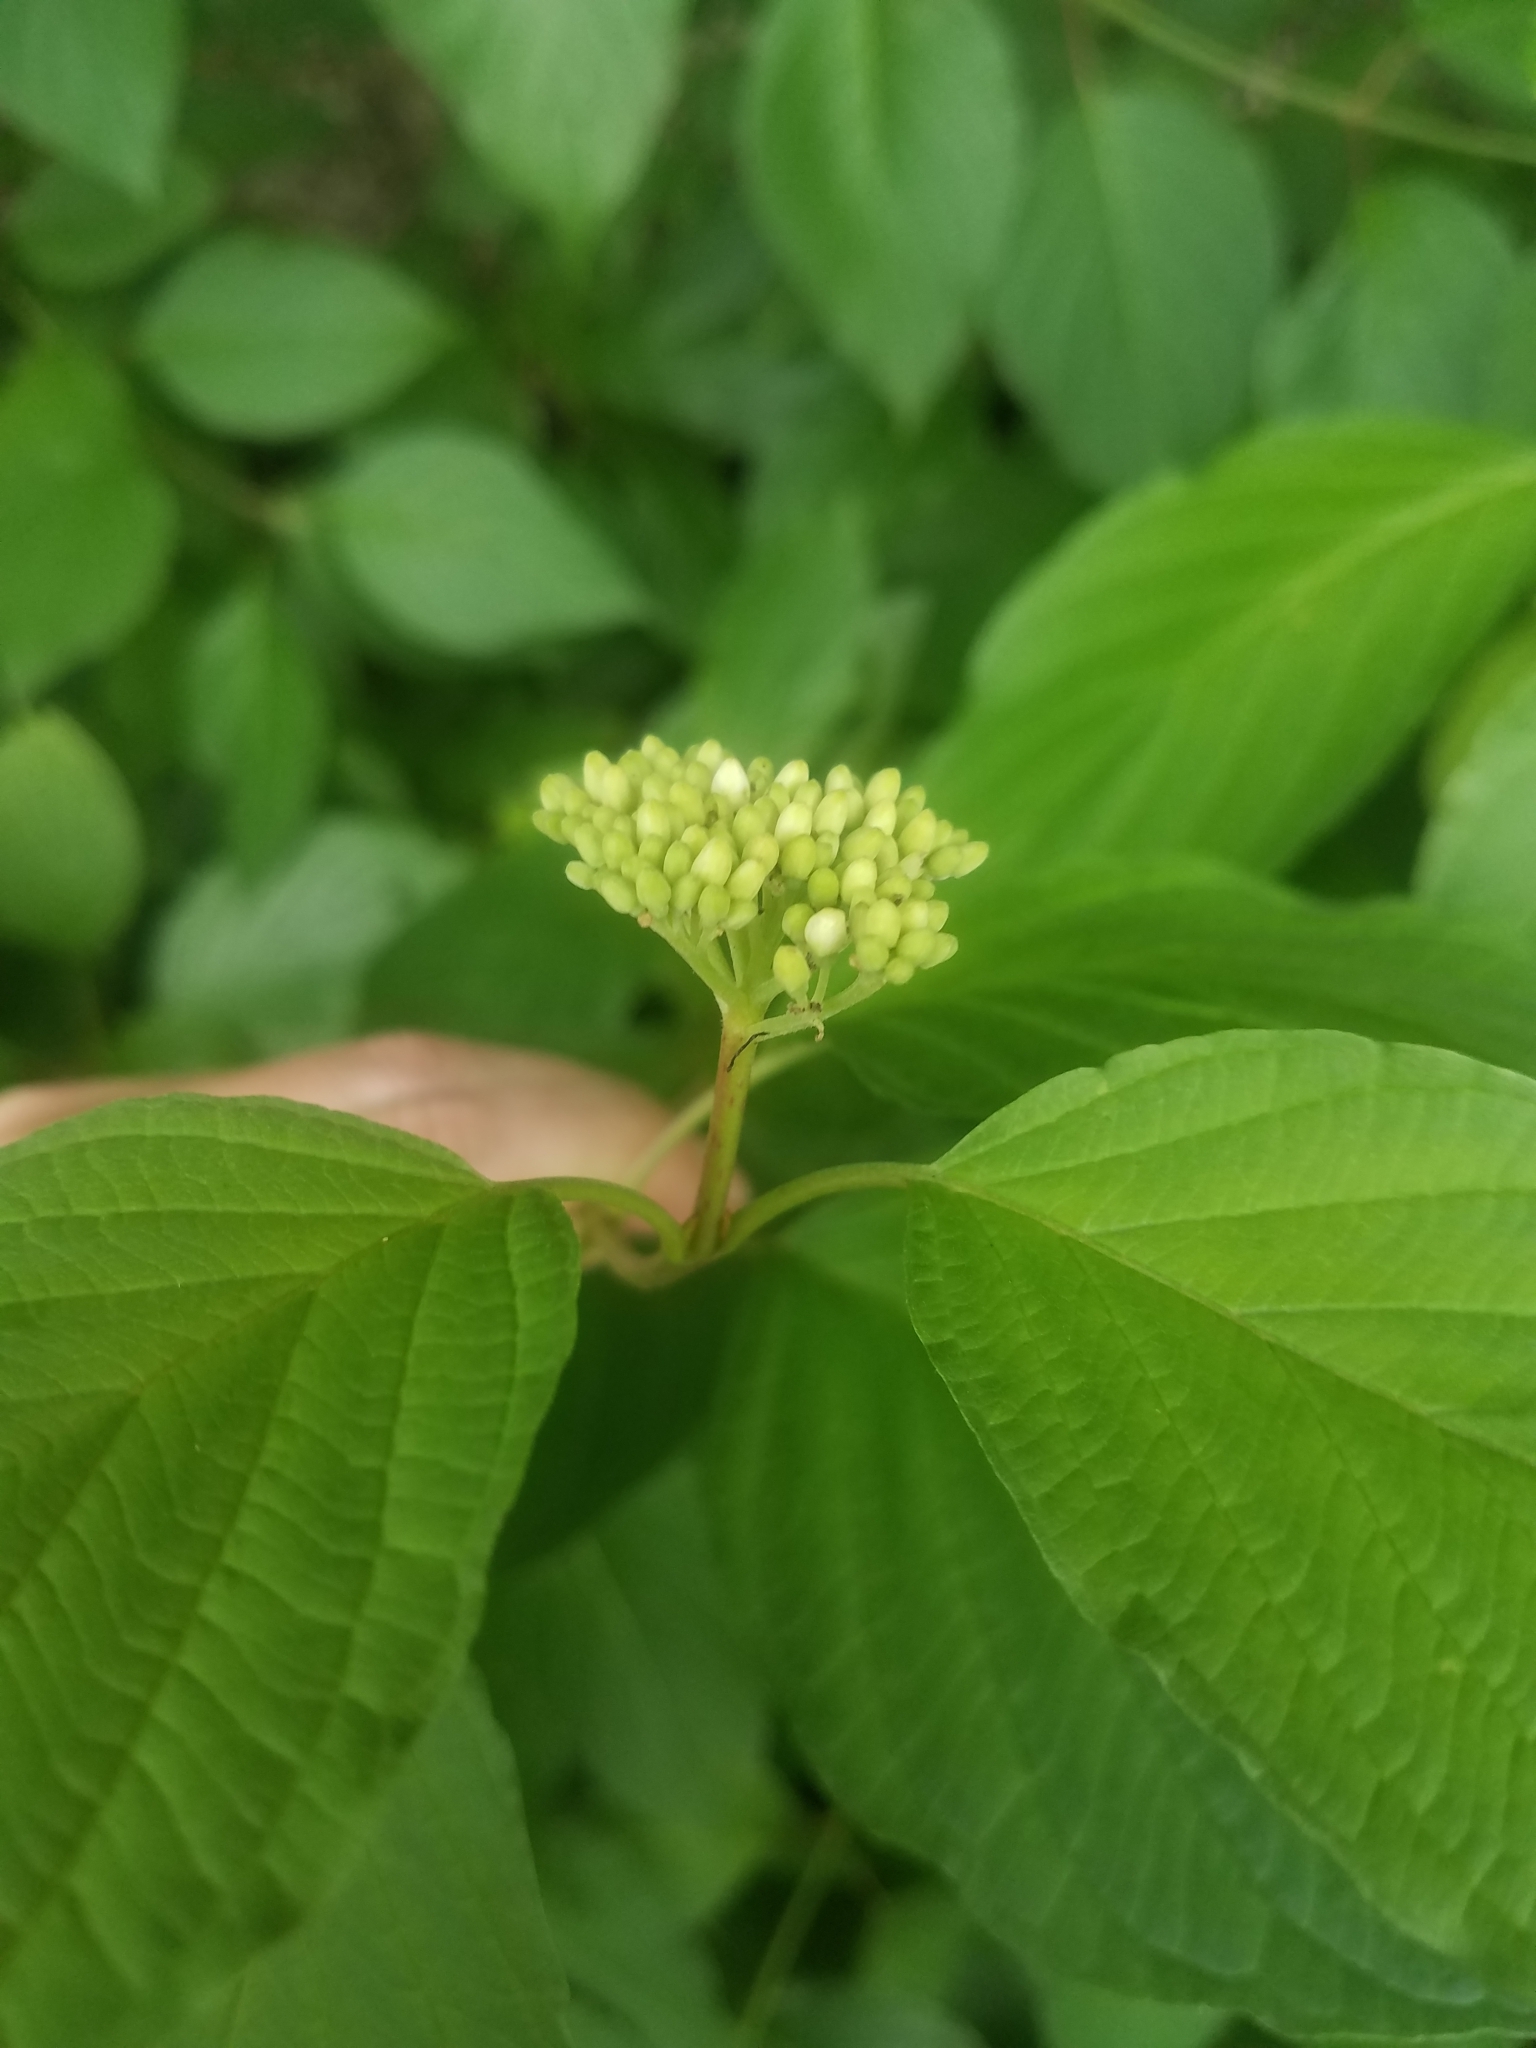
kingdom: Plantae
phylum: Tracheophyta
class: Magnoliopsida
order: Cornales
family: Cornaceae
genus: Cornus
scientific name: Cornus sanguinea
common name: Dogwood
